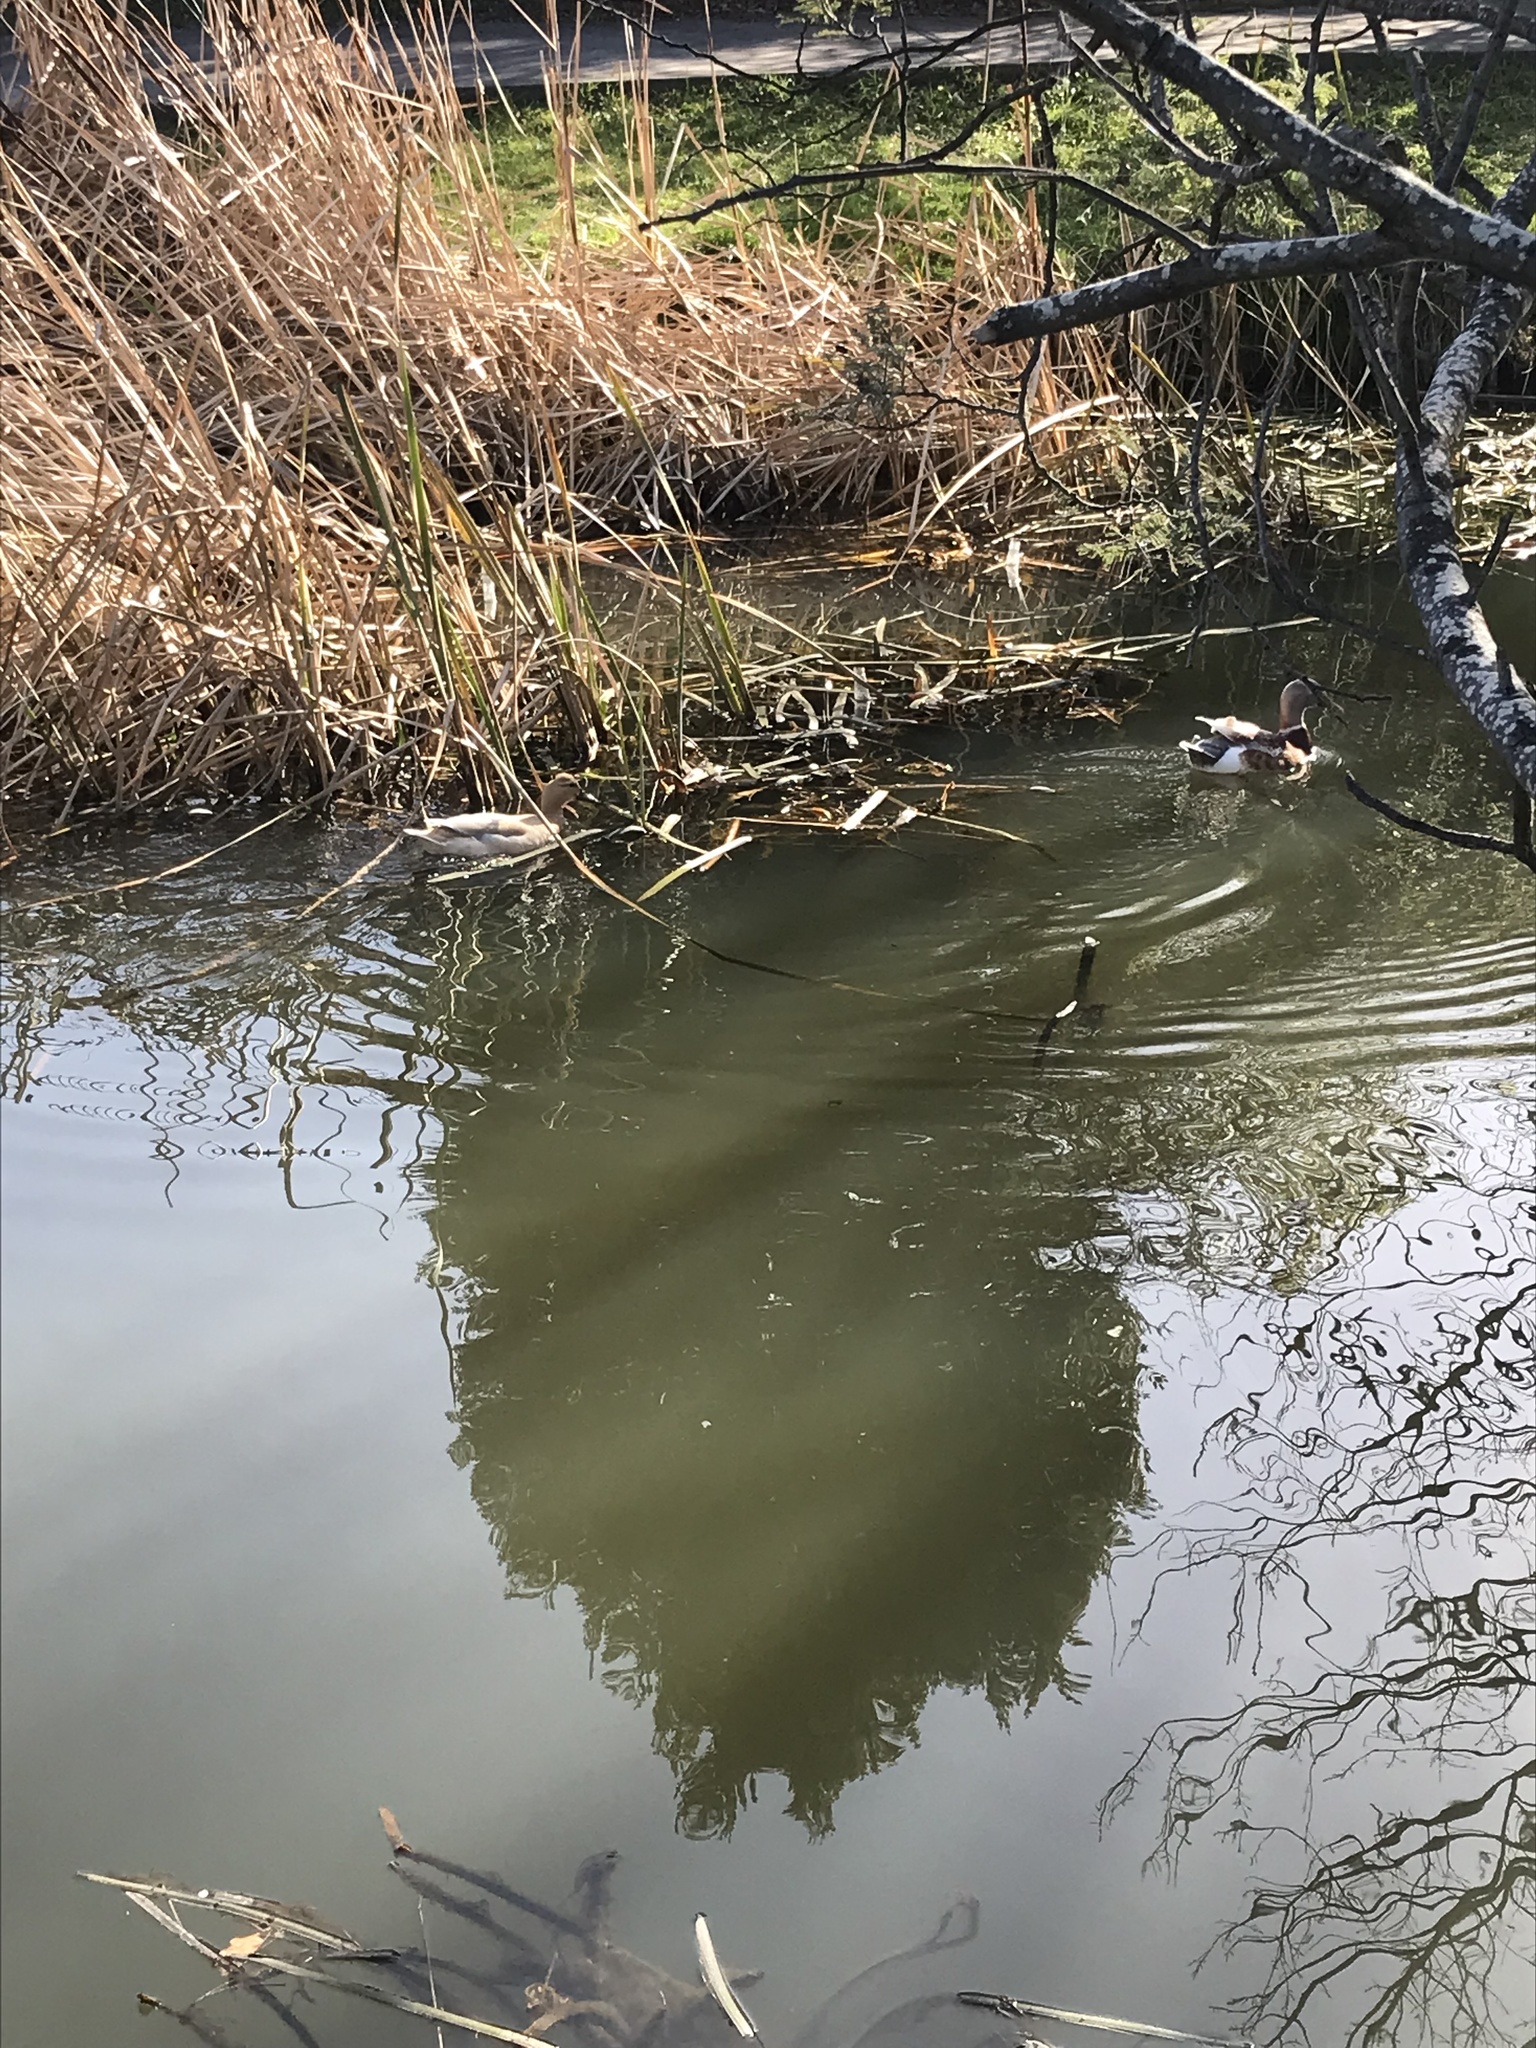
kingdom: Animalia
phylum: Chordata
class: Aves
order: Anseriformes
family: Anatidae
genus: Anas
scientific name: Anas platyrhynchos
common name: Mallard
